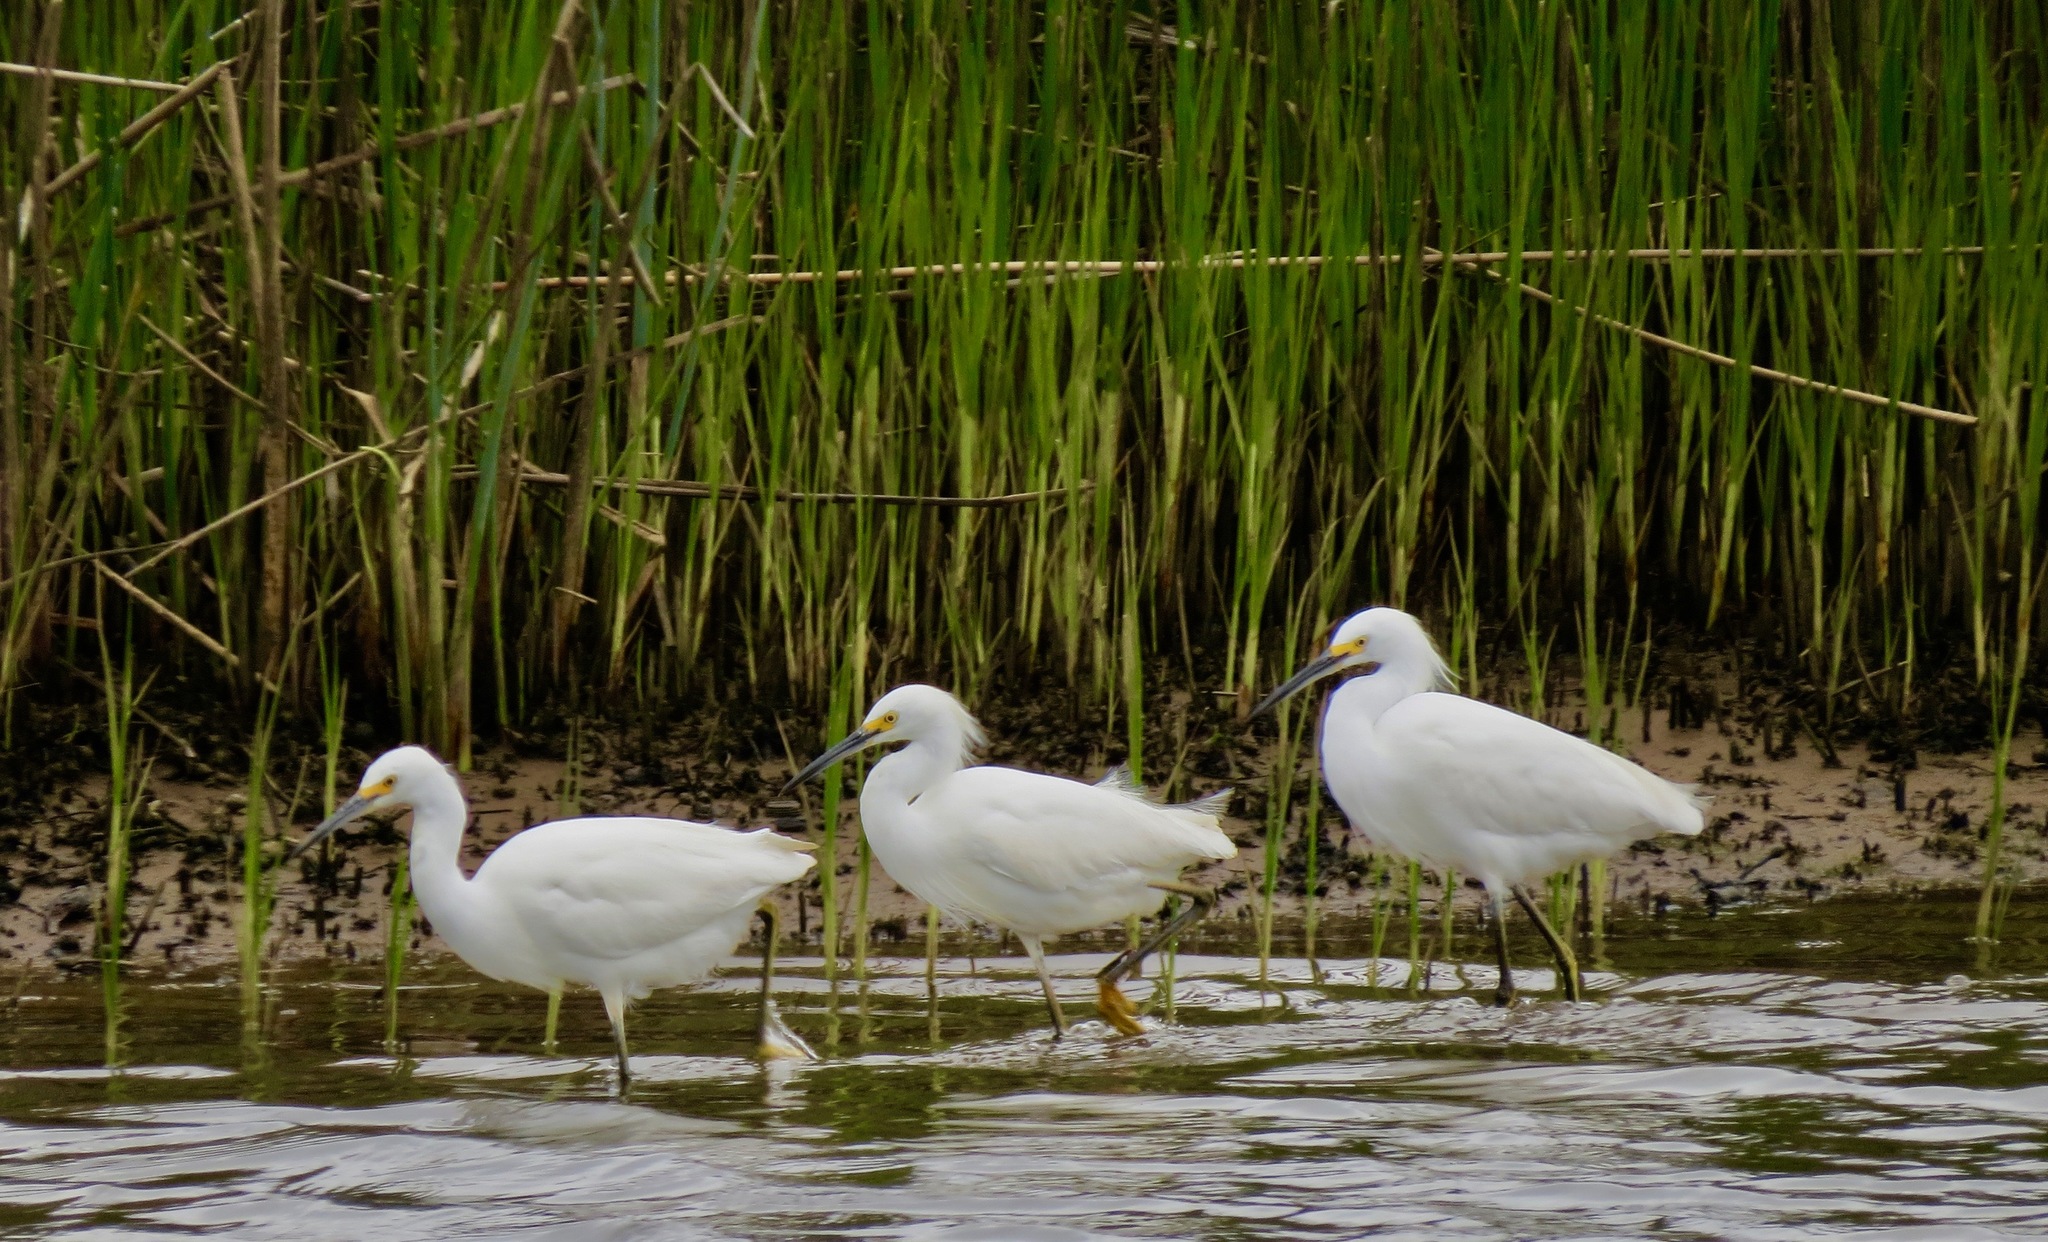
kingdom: Animalia
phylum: Chordata
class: Aves
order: Pelecaniformes
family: Ardeidae
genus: Egretta
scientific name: Egretta thula
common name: Snowy egret
